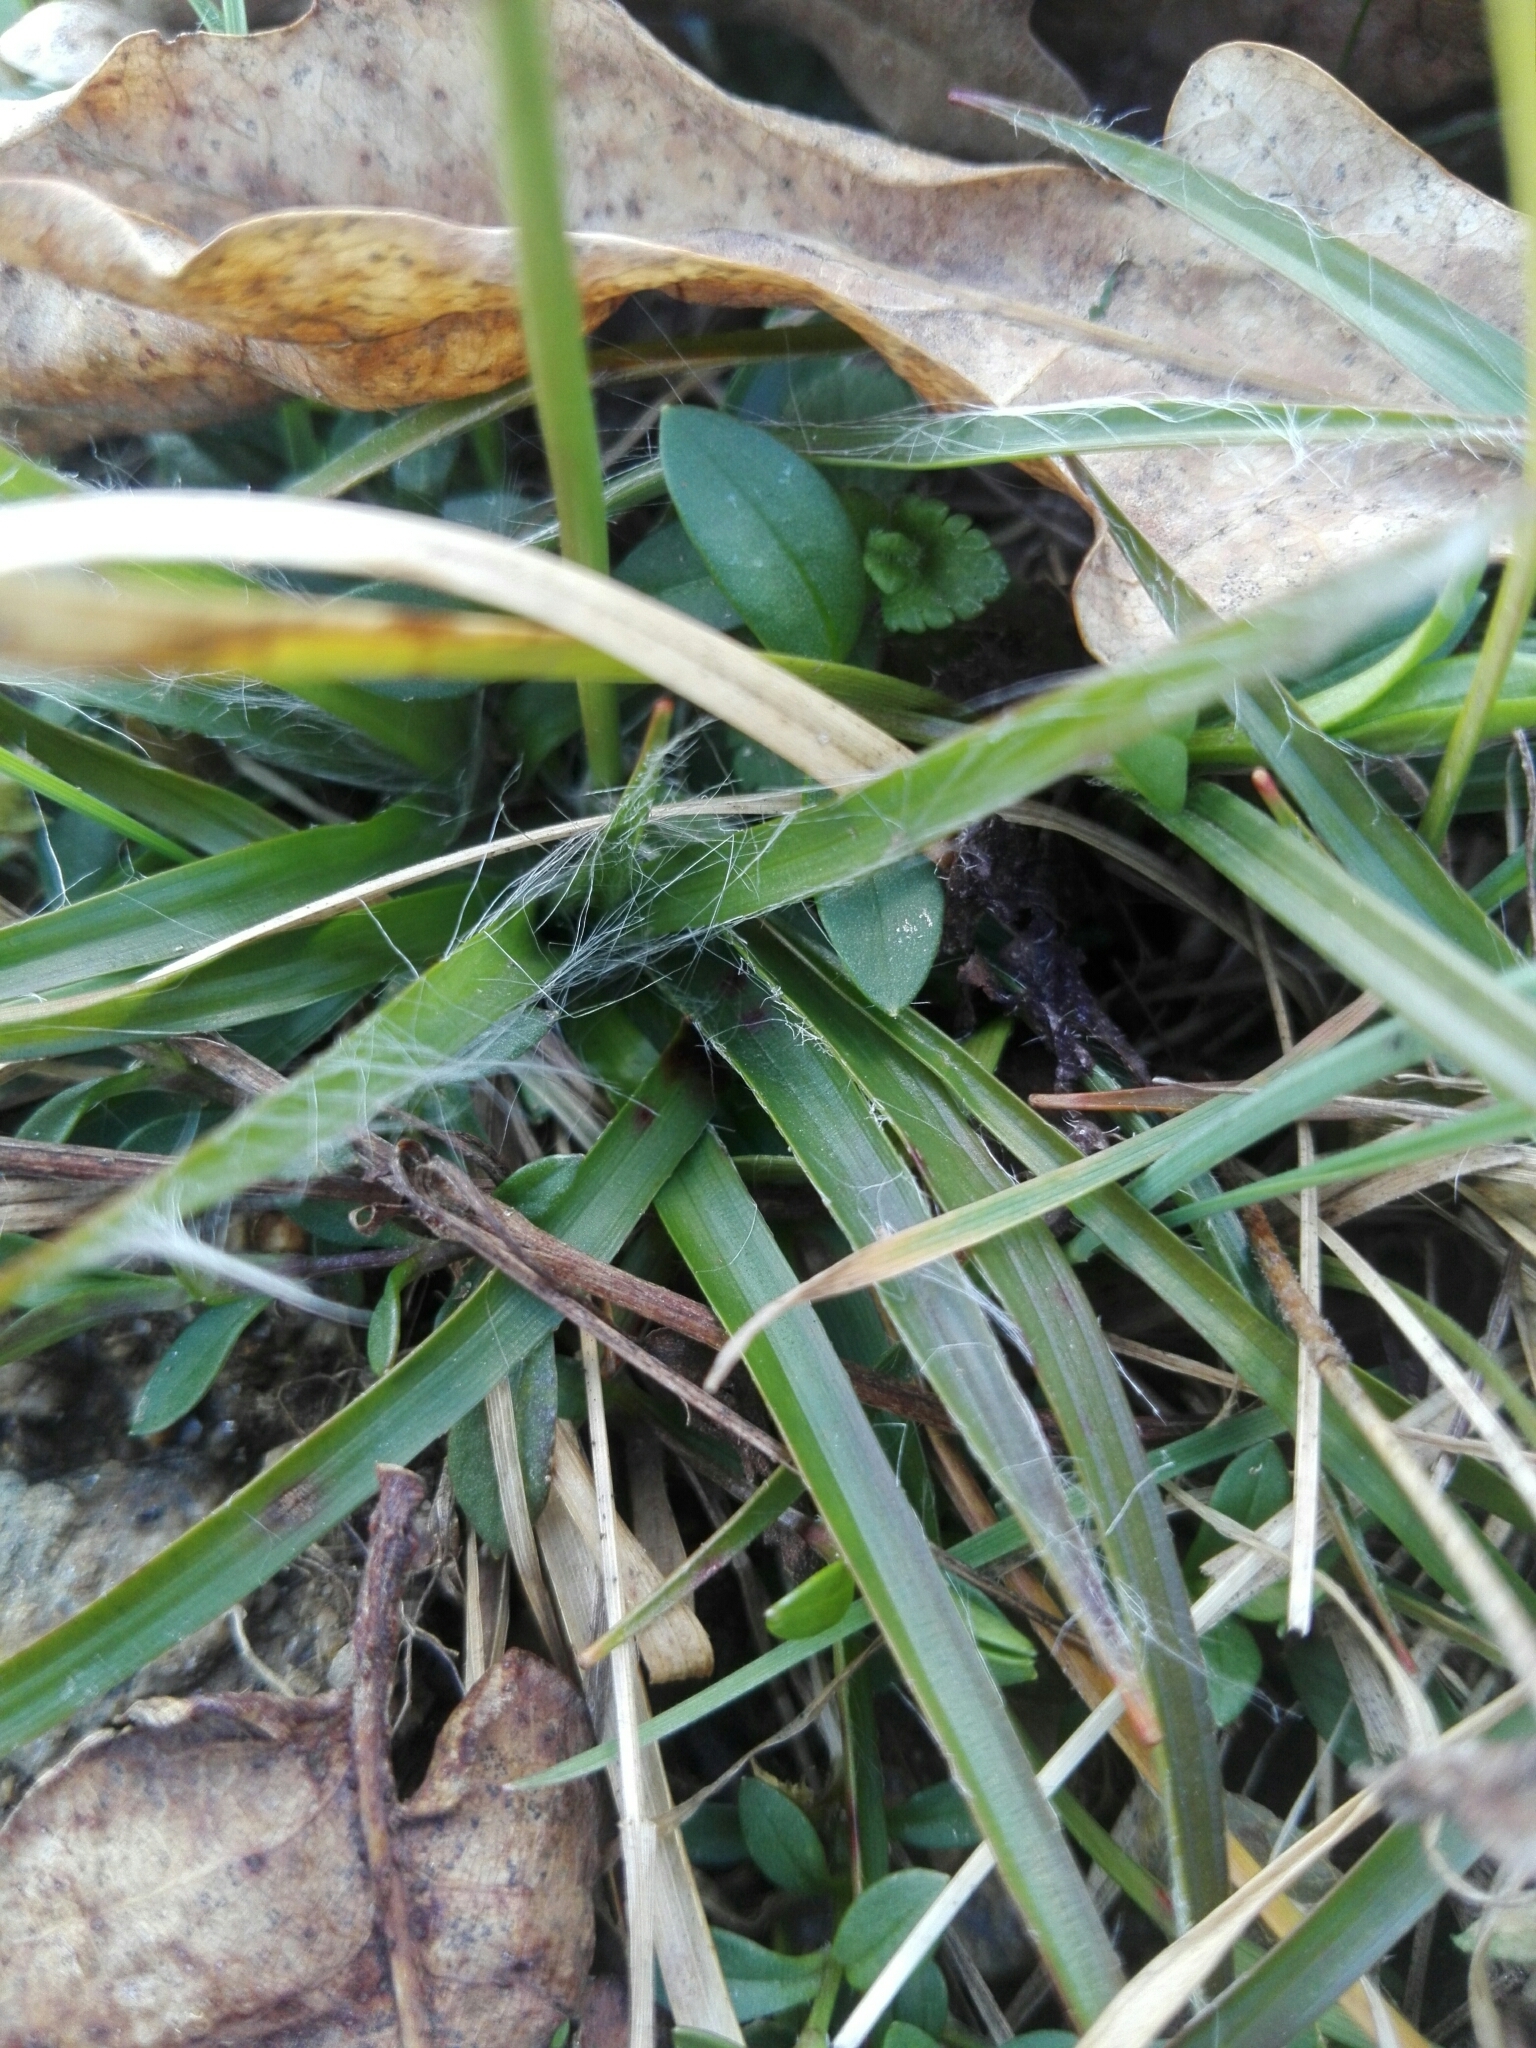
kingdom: Plantae
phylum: Tracheophyta
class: Liliopsida
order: Poales
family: Juncaceae
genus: Luzula
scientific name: Luzula campestris
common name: Field wood-rush
